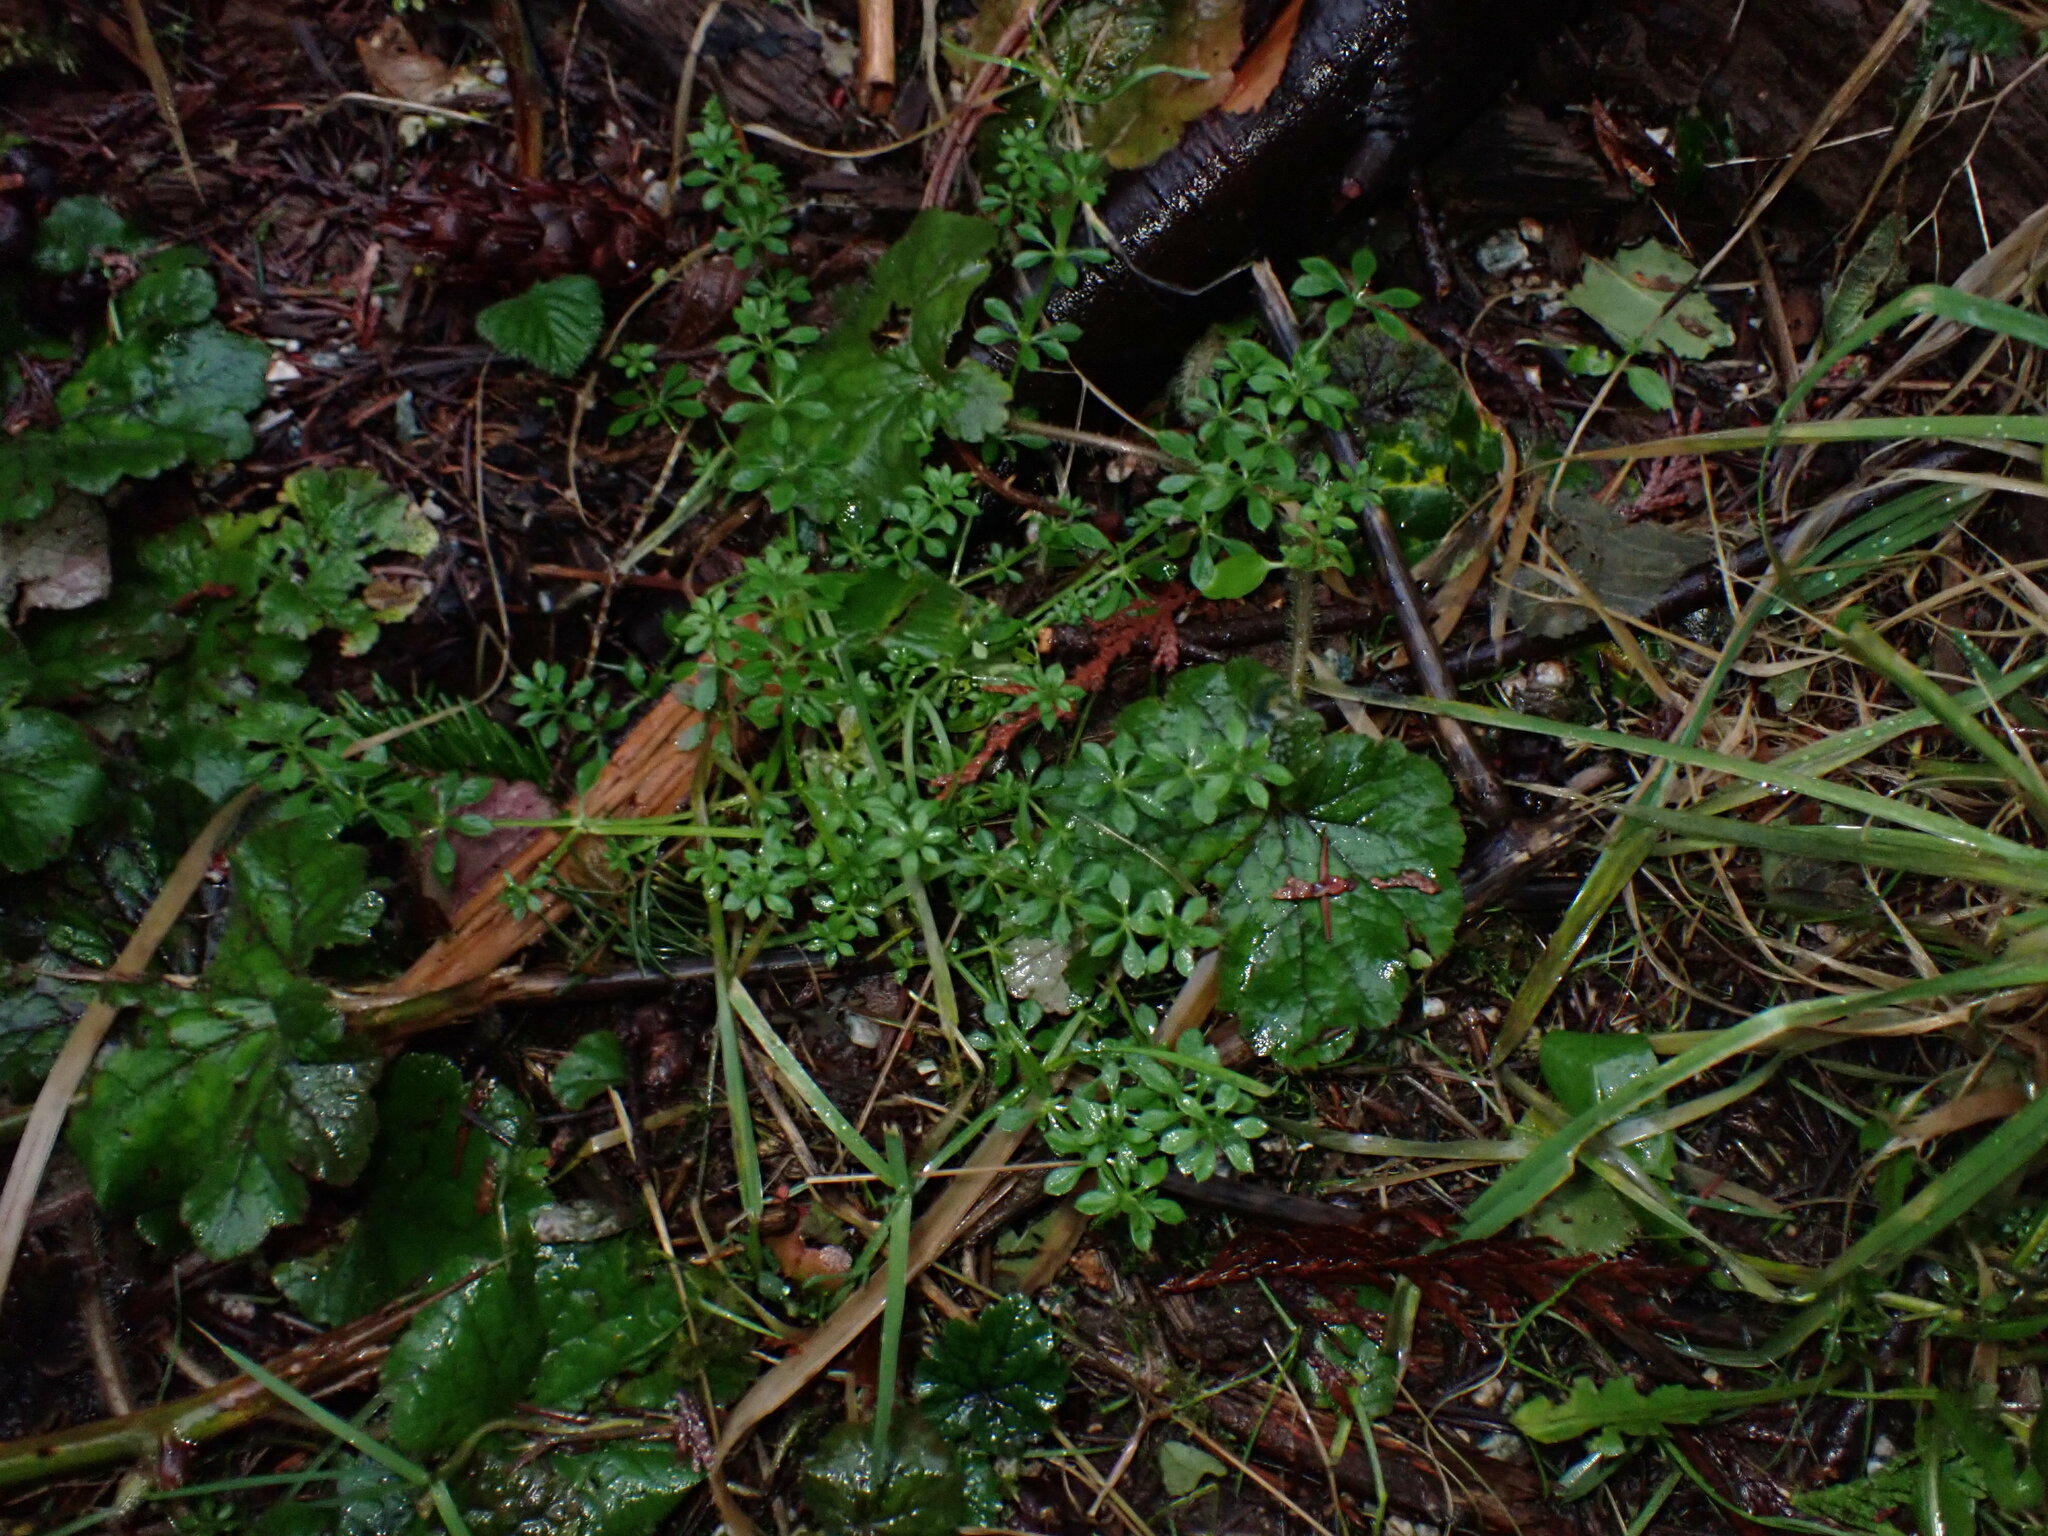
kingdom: Plantae
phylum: Tracheophyta
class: Magnoliopsida
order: Gentianales
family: Rubiaceae
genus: Galium
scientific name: Galium aparine
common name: Cleavers
